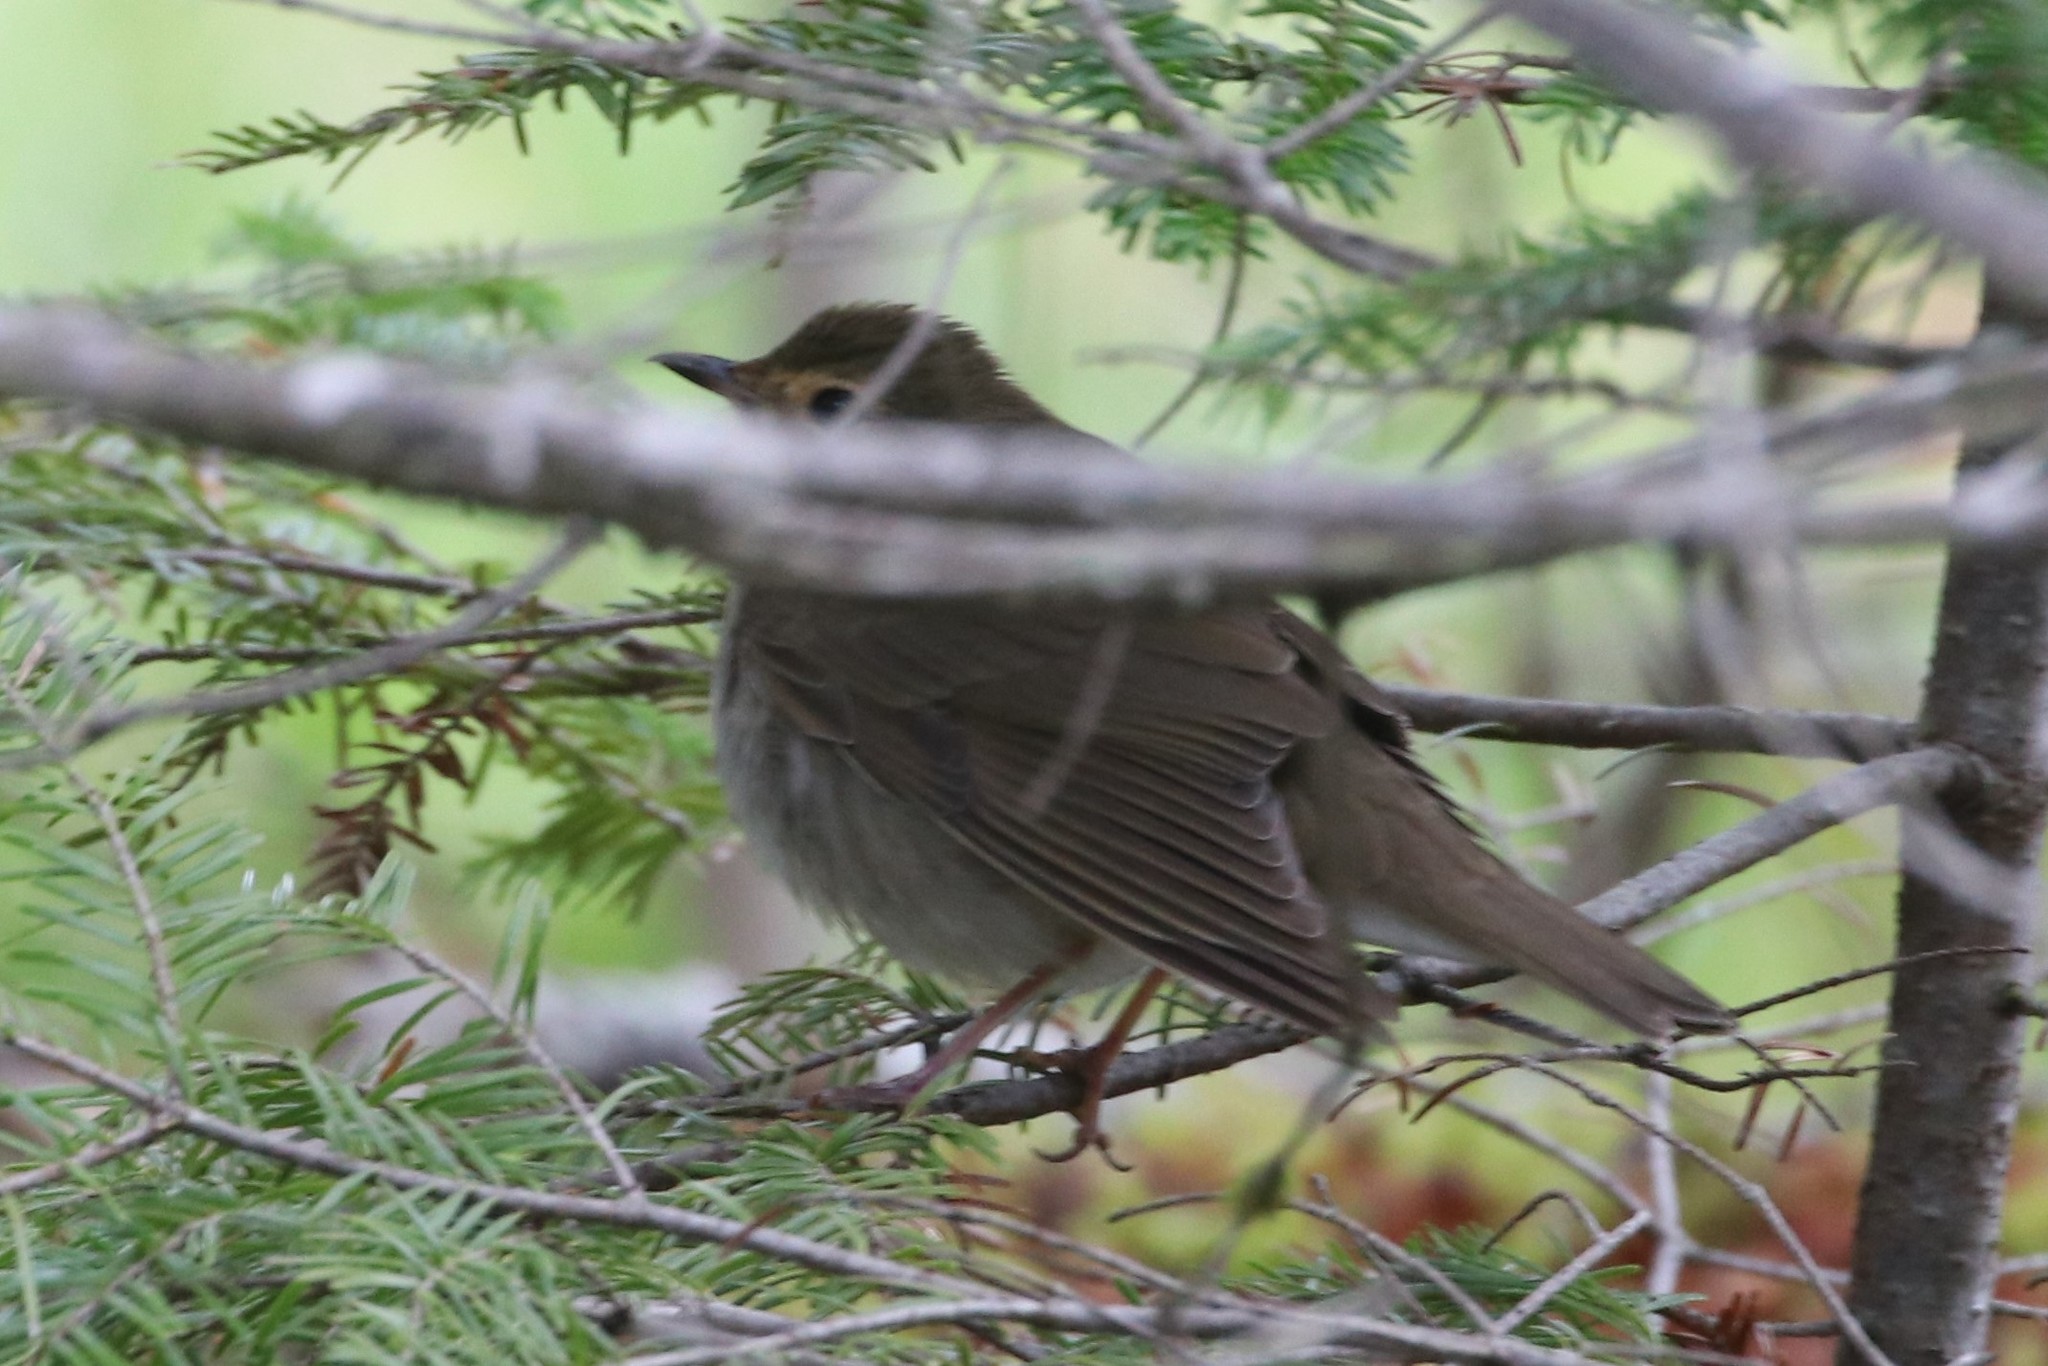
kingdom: Animalia
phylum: Chordata
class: Aves
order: Passeriformes
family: Turdidae
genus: Catharus
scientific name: Catharus ustulatus
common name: Swainson's thrush
